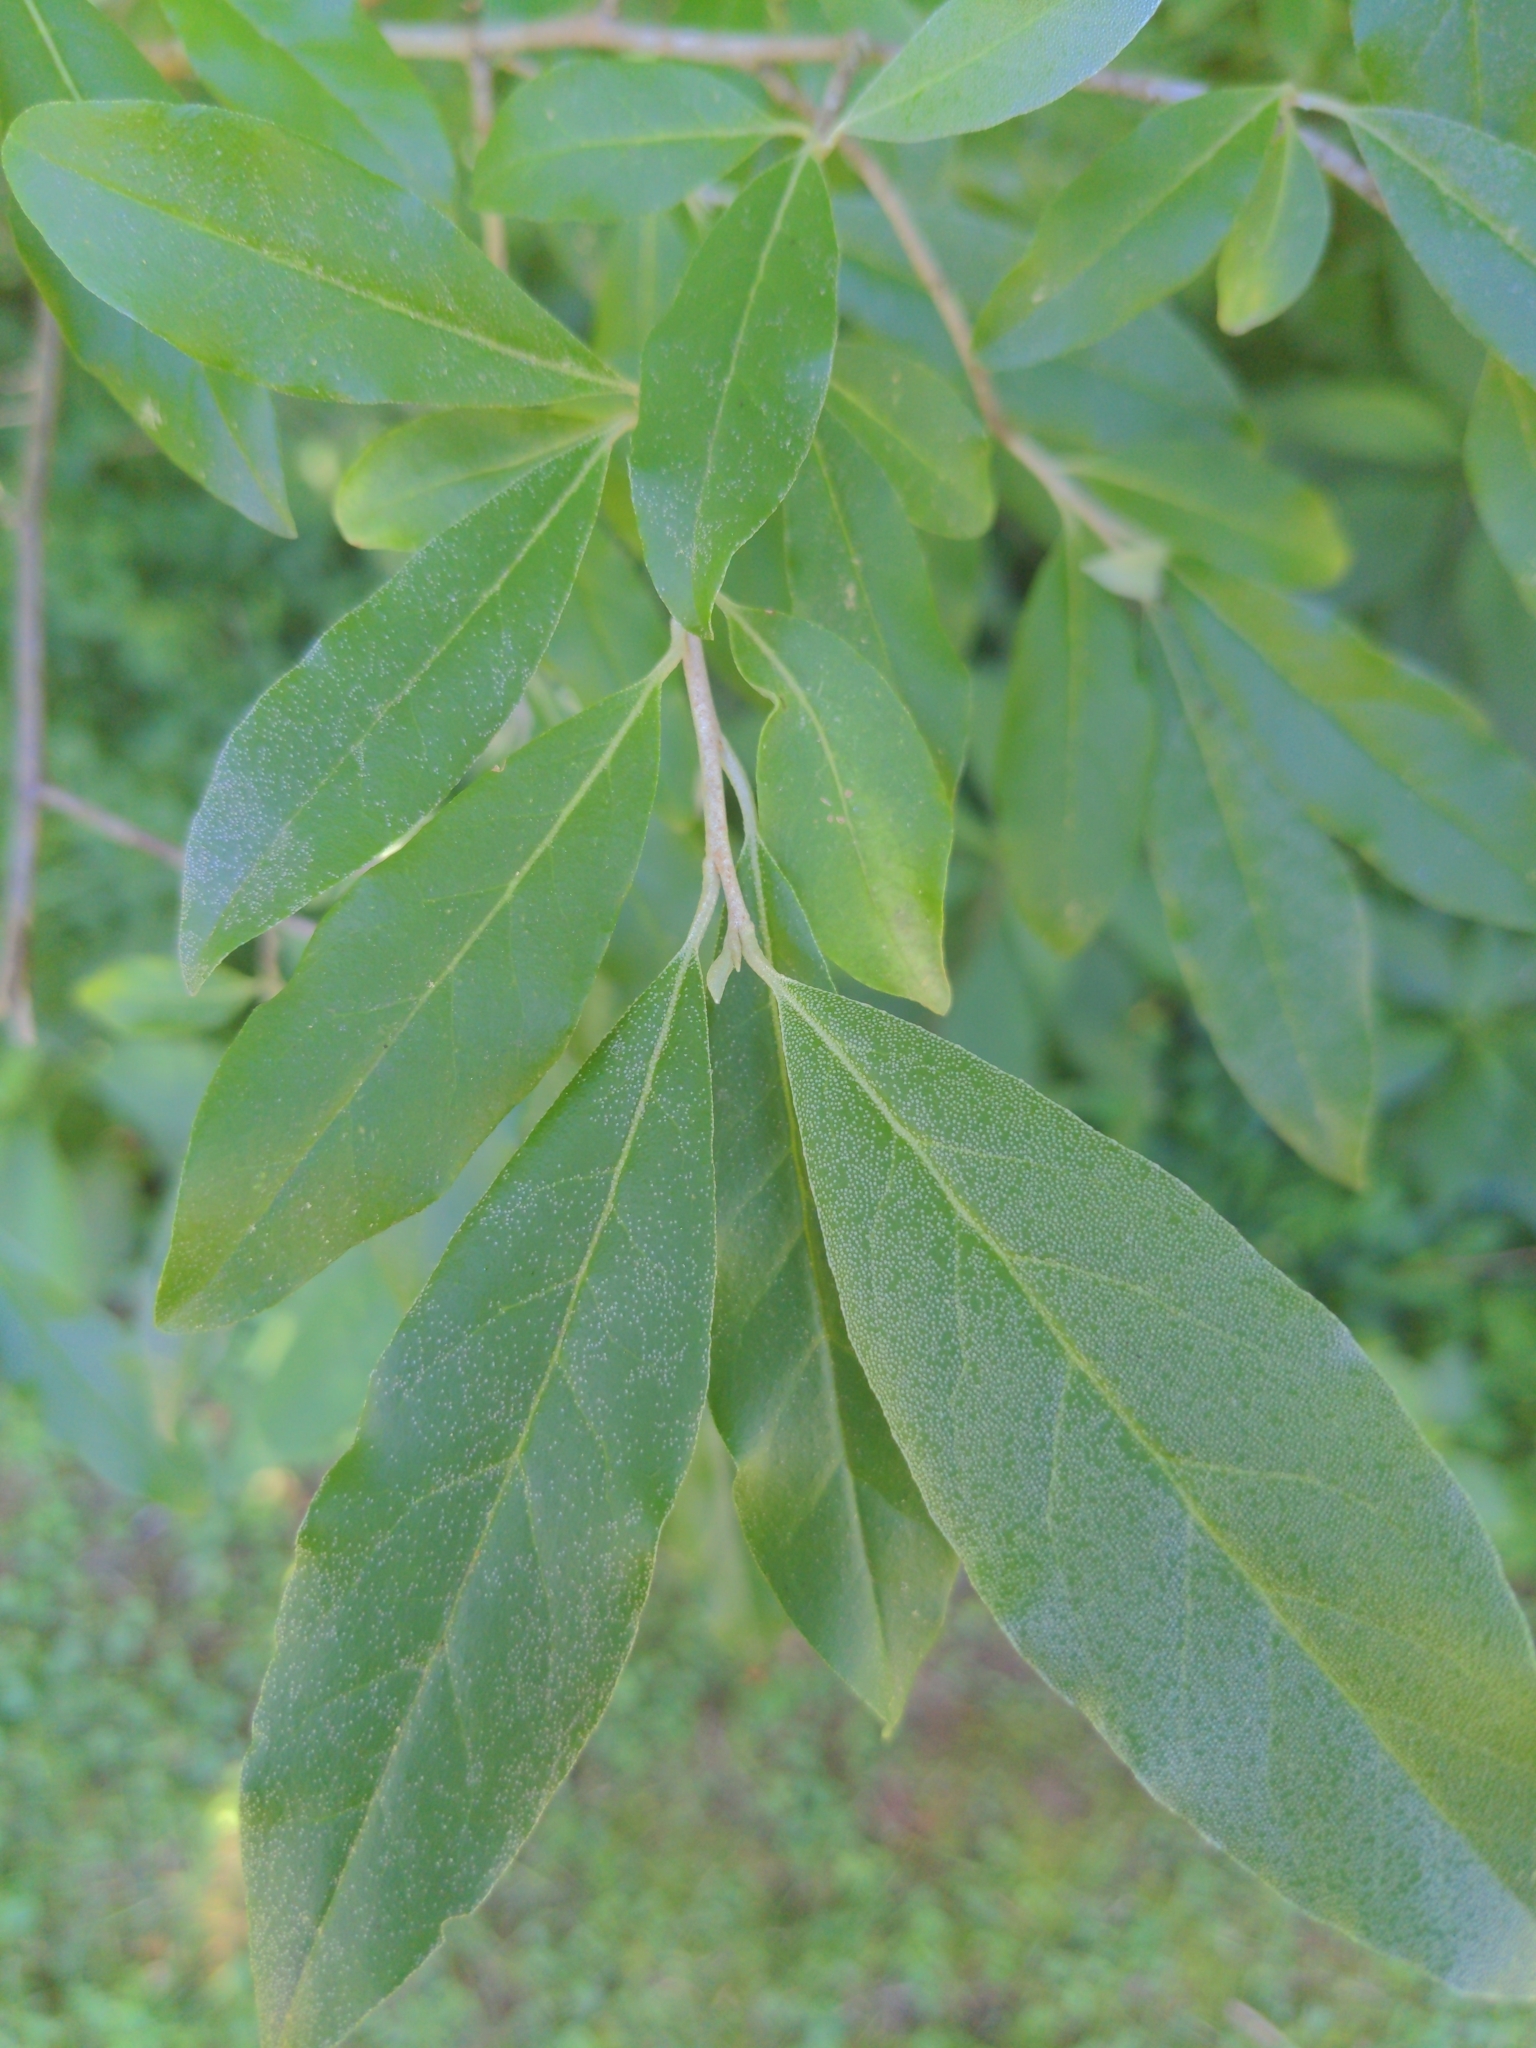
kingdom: Plantae
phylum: Tracheophyta
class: Magnoliopsida
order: Rosales
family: Elaeagnaceae
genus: Elaeagnus
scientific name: Elaeagnus umbellata
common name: Autumn olive
